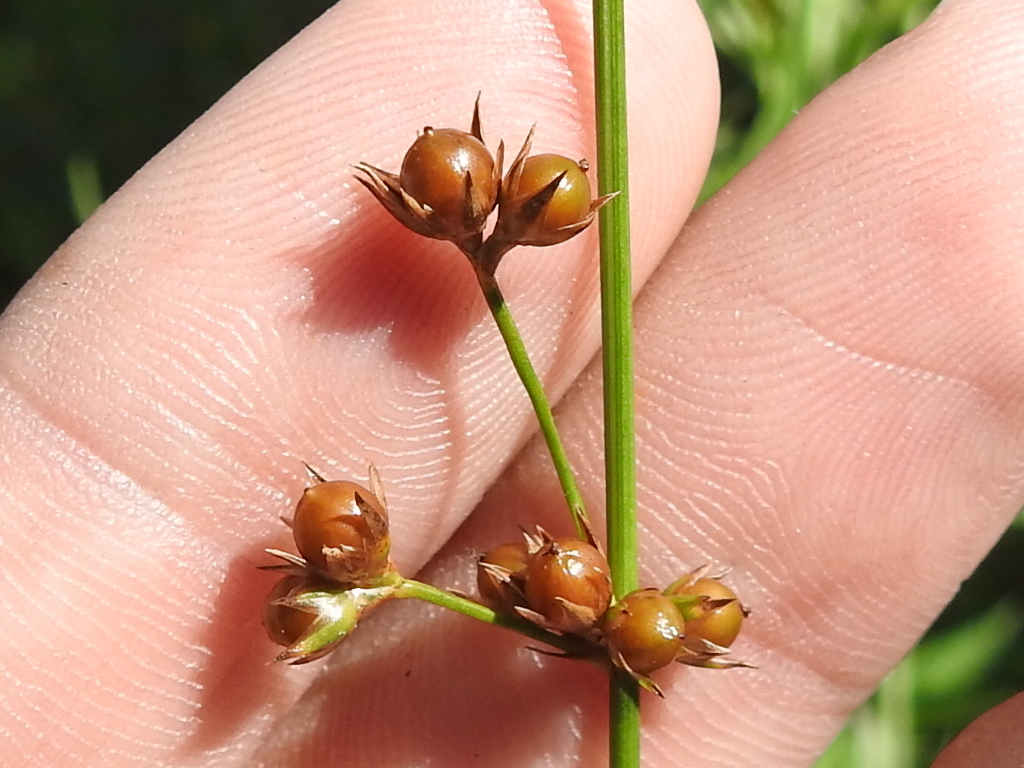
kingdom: Plantae
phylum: Tracheophyta
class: Liliopsida
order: Poales
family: Juncaceae
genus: Juncus
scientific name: Juncus coriaceus
